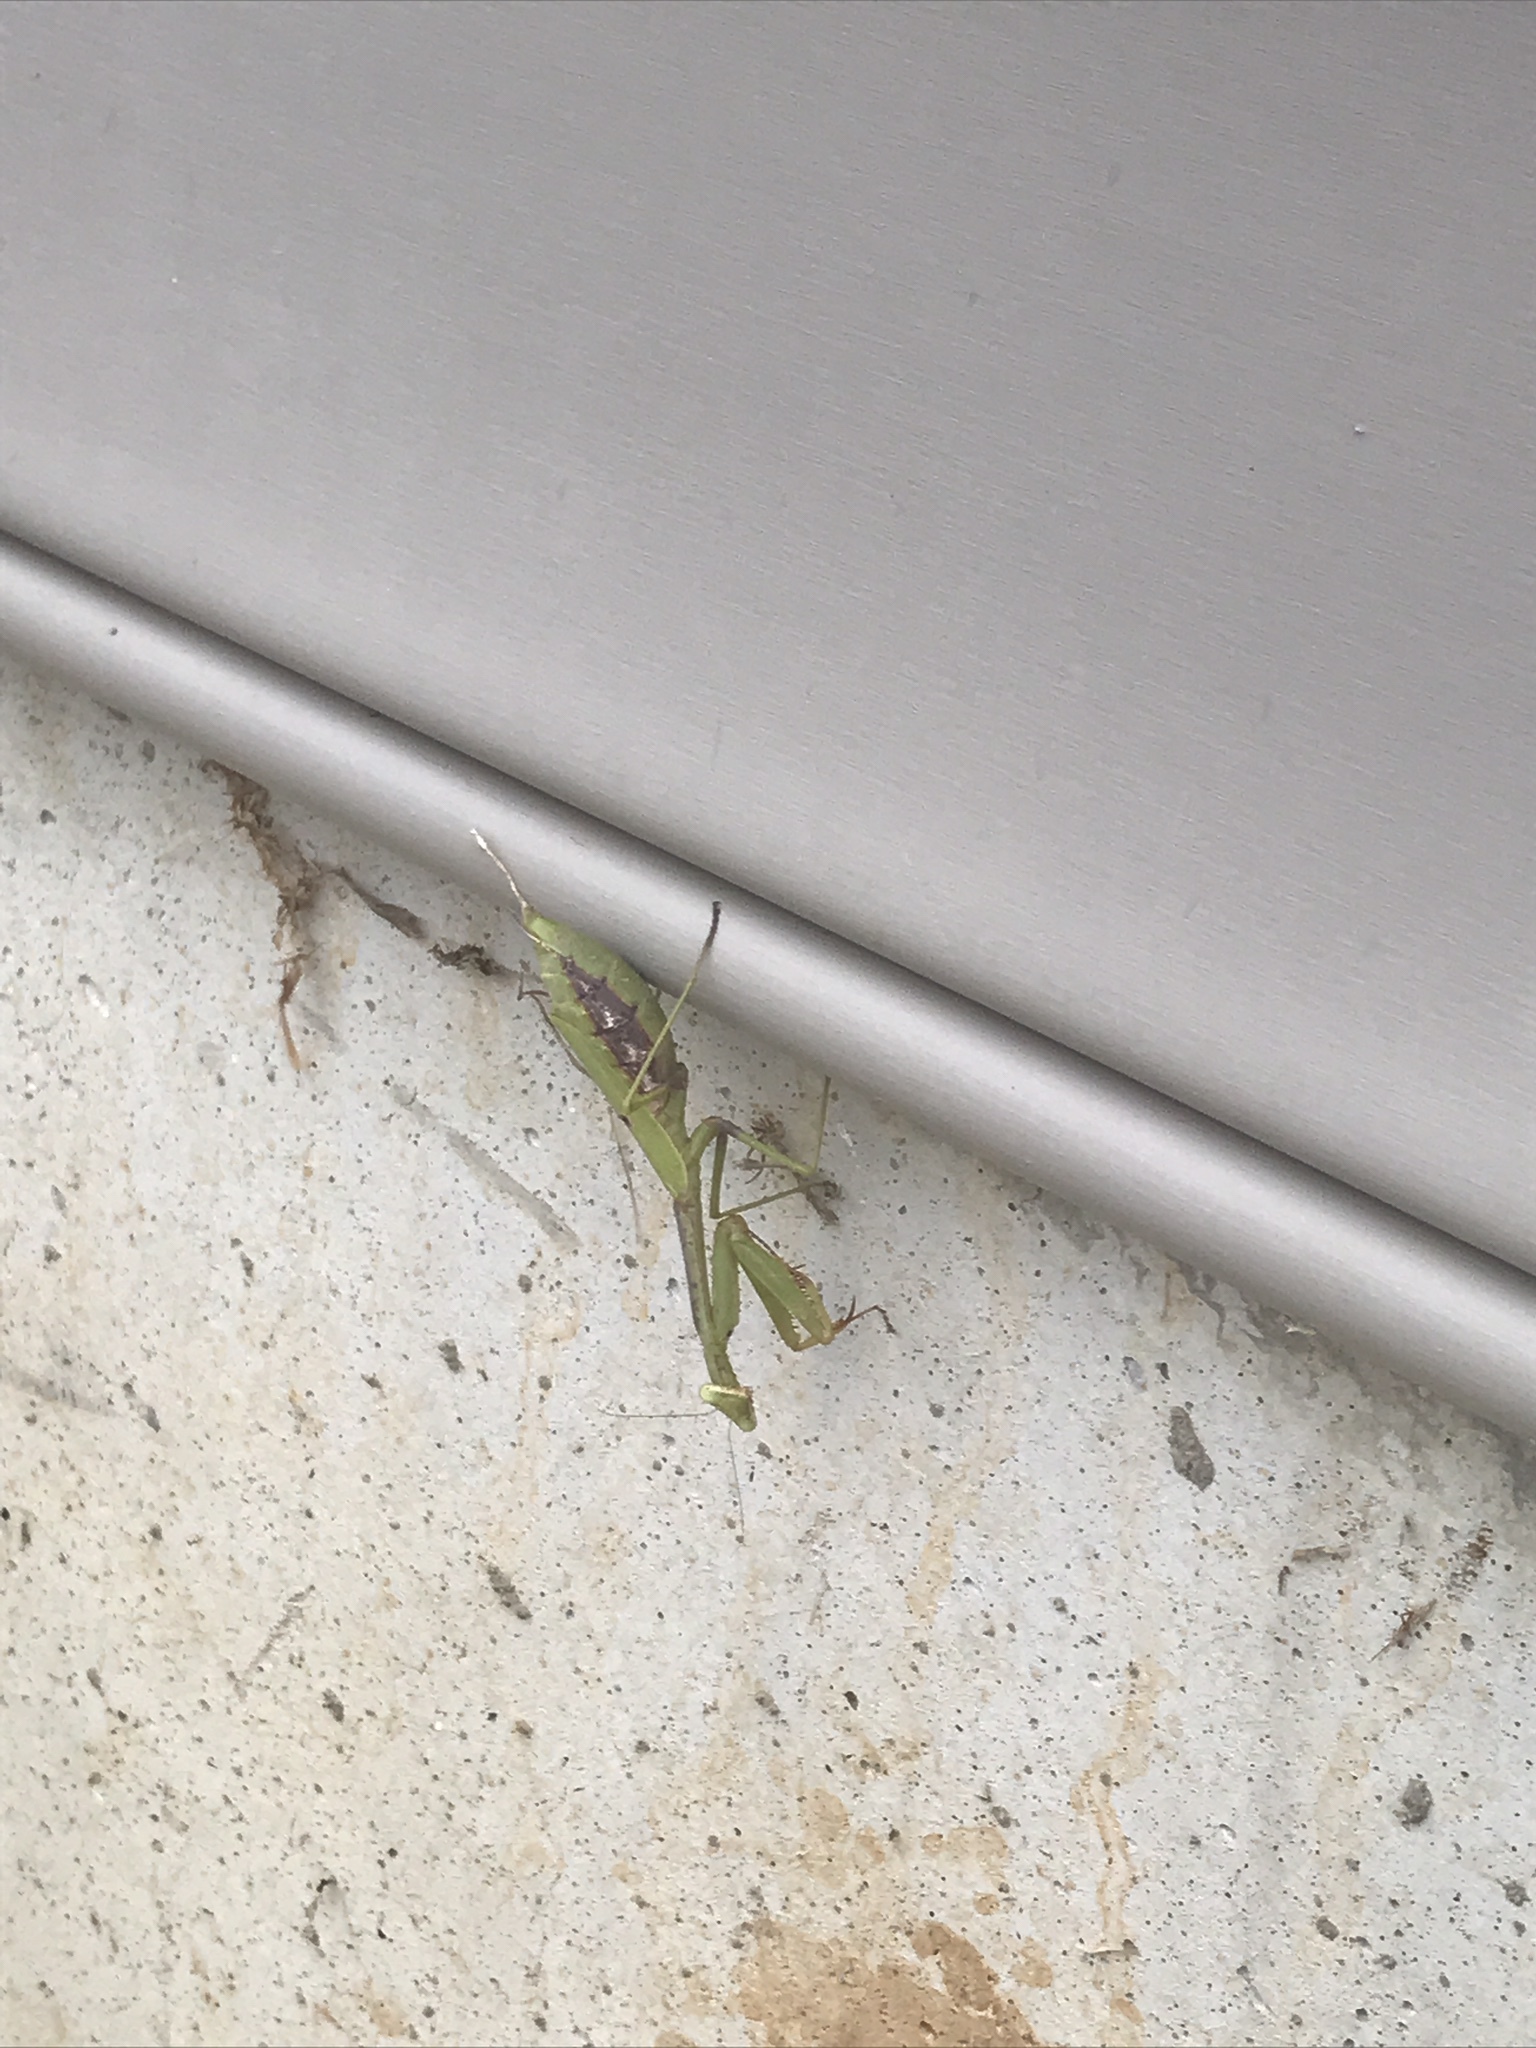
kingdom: Animalia
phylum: Arthropoda
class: Insecta
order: Mantodea
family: Mantidae
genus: Stagmomantis
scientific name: Stagmomantis carolina
